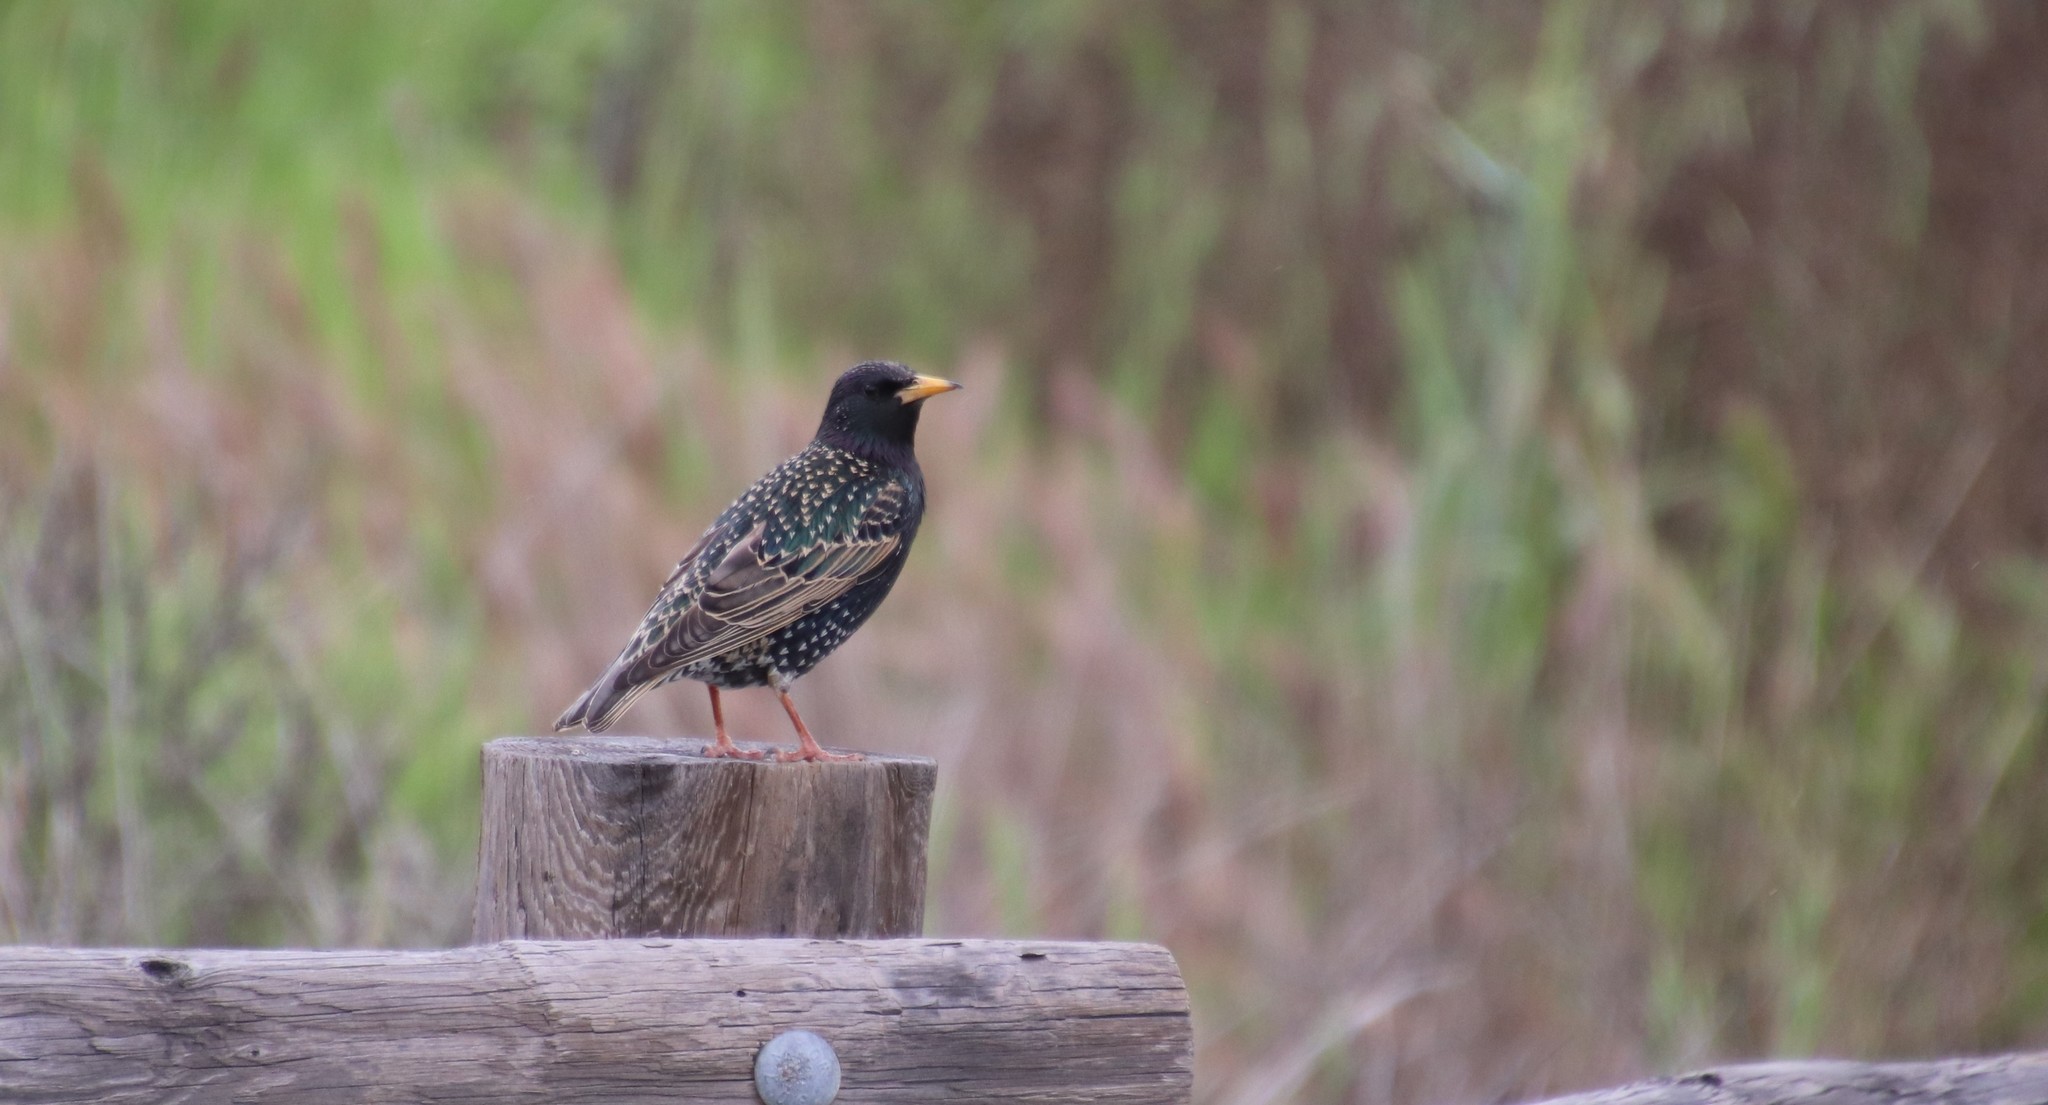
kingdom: Animalia
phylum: Chordata
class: Aves
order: Passeriformes
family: Sturnidae
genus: Sturnus
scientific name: Sturnus vulgaris
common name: Common starling
